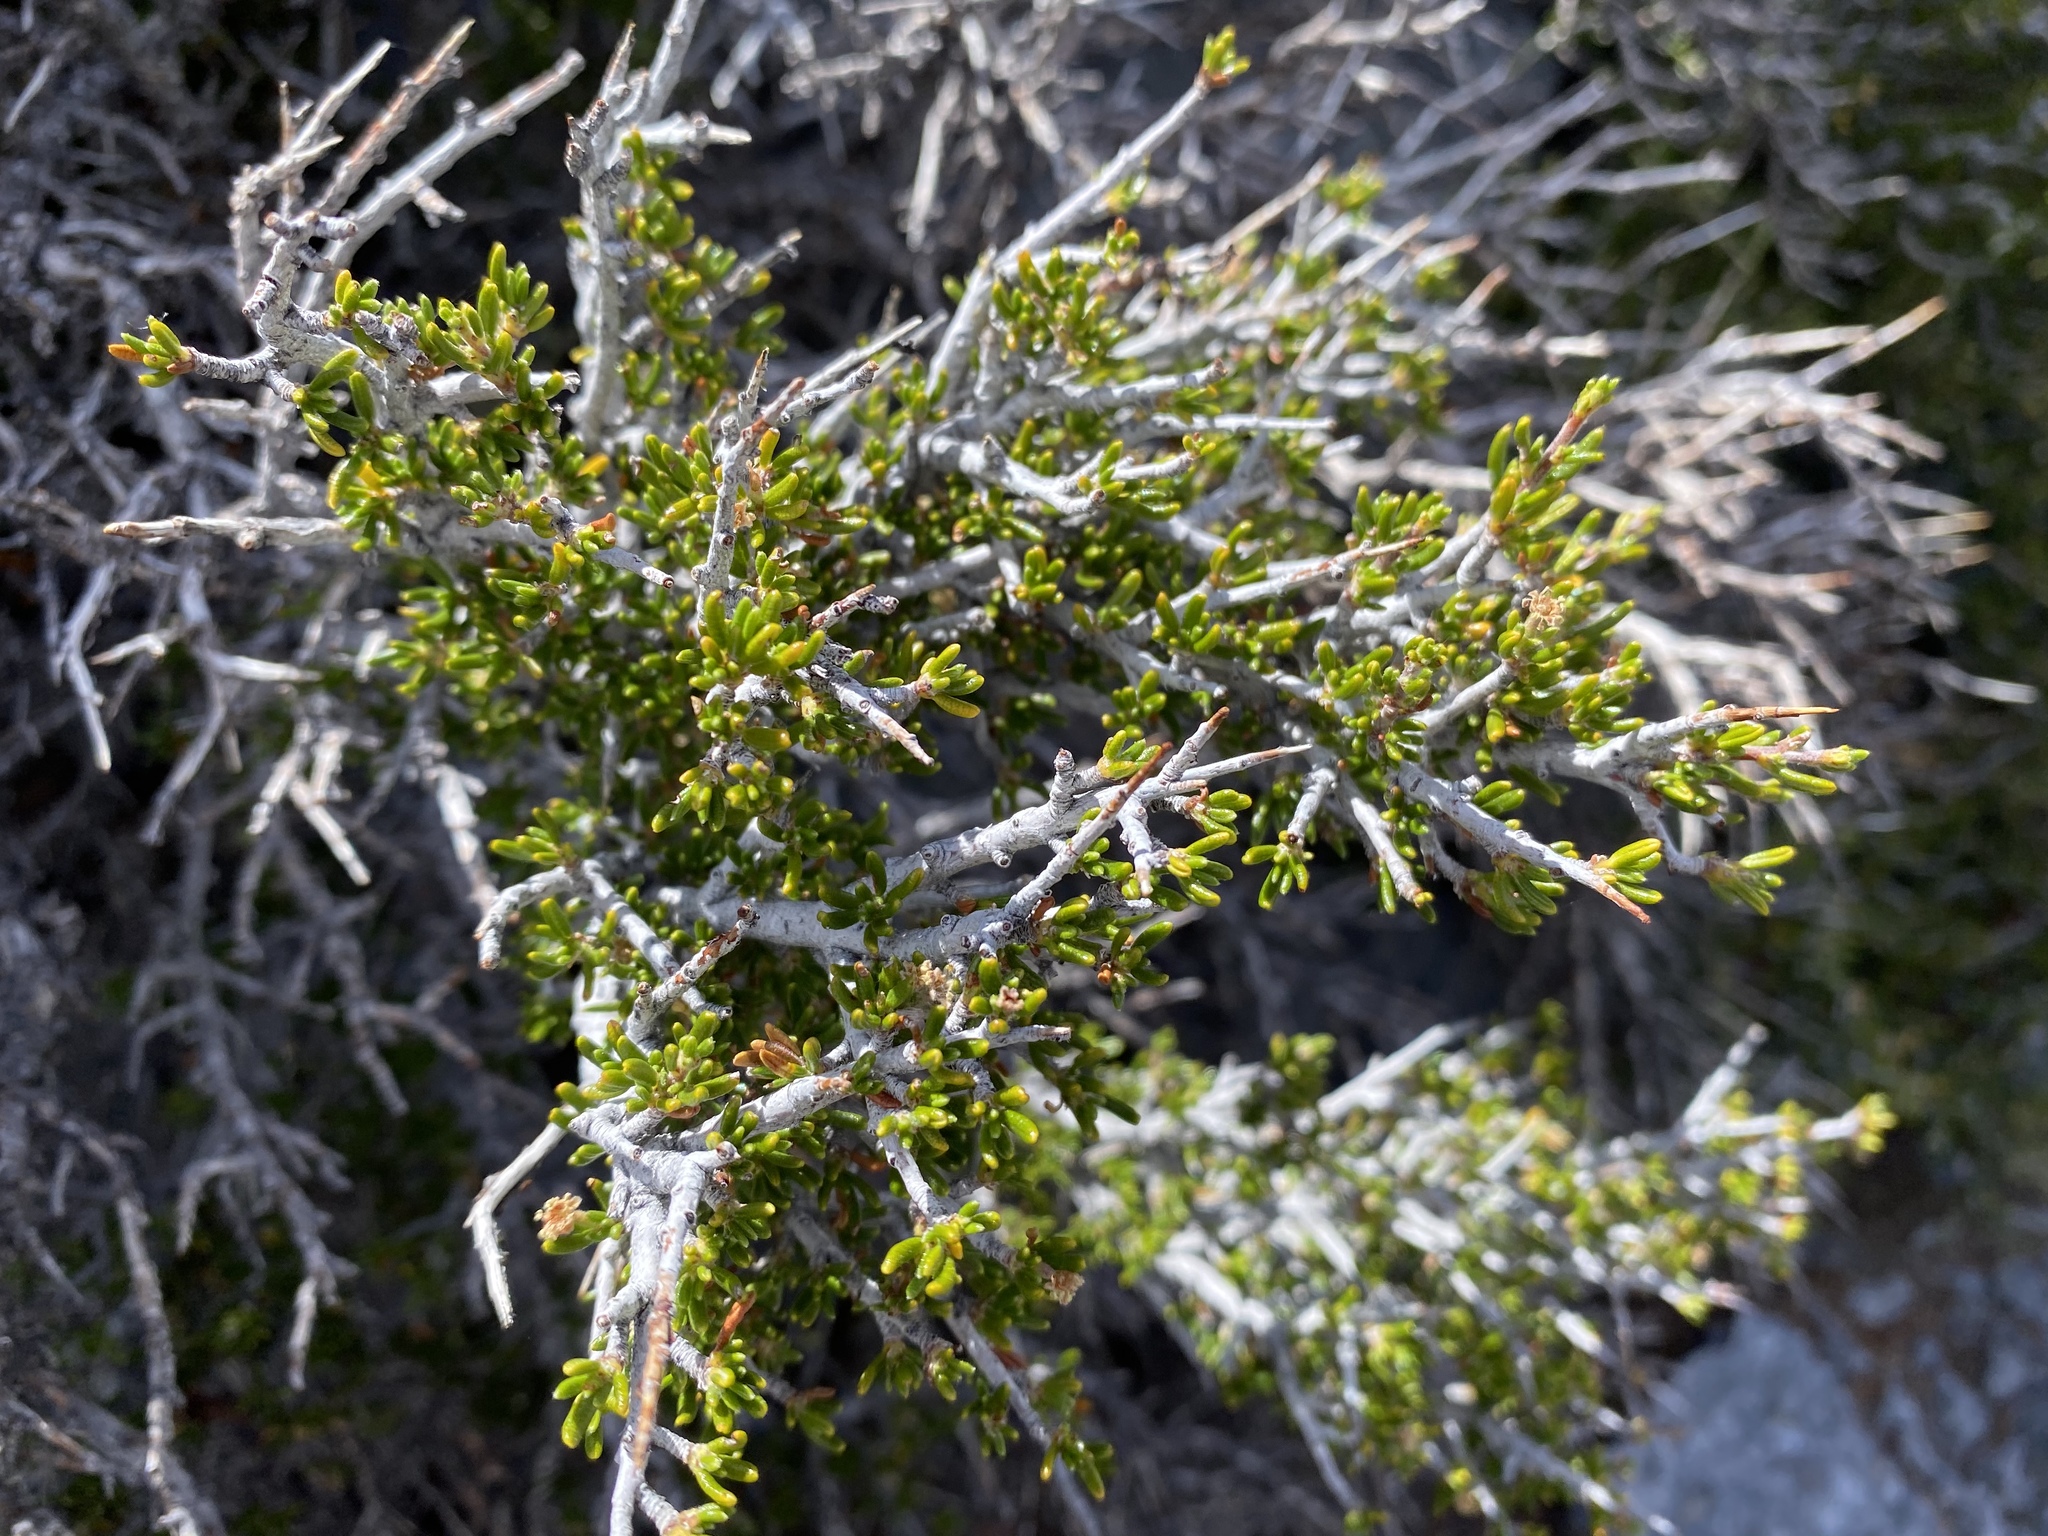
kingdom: Plantae
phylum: Tracheophyta
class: Magnoliopsida
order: Rosales
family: Rosaceae
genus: Cercocarpus
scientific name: Cercocarpus intricatus
